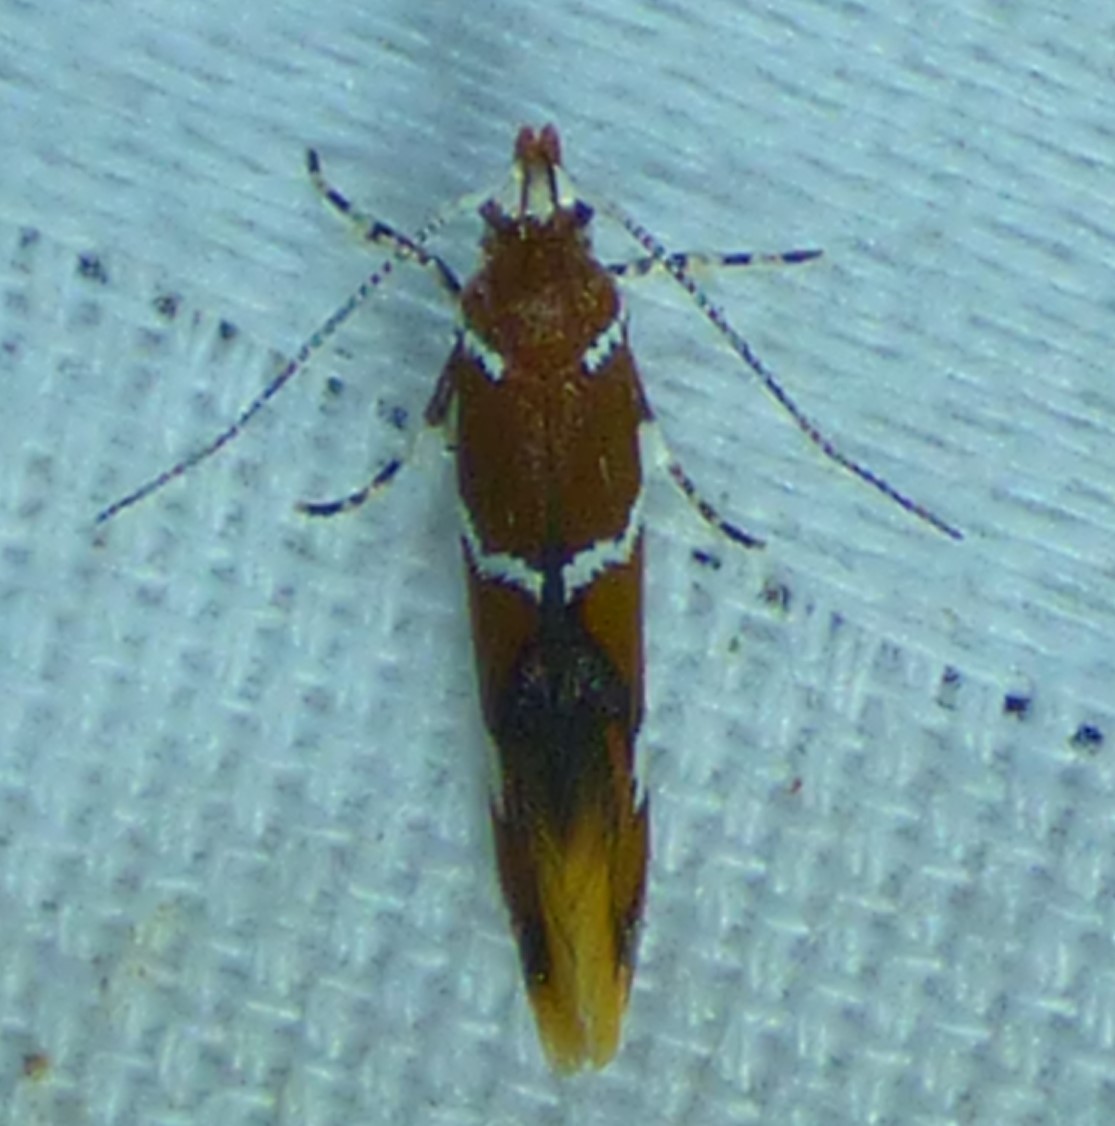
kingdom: Animalia
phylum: Arthropoda
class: Insecta
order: Lepidoptera
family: Oecophoridae
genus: Promalactis
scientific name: Promalactis suzukiella
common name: Moth
